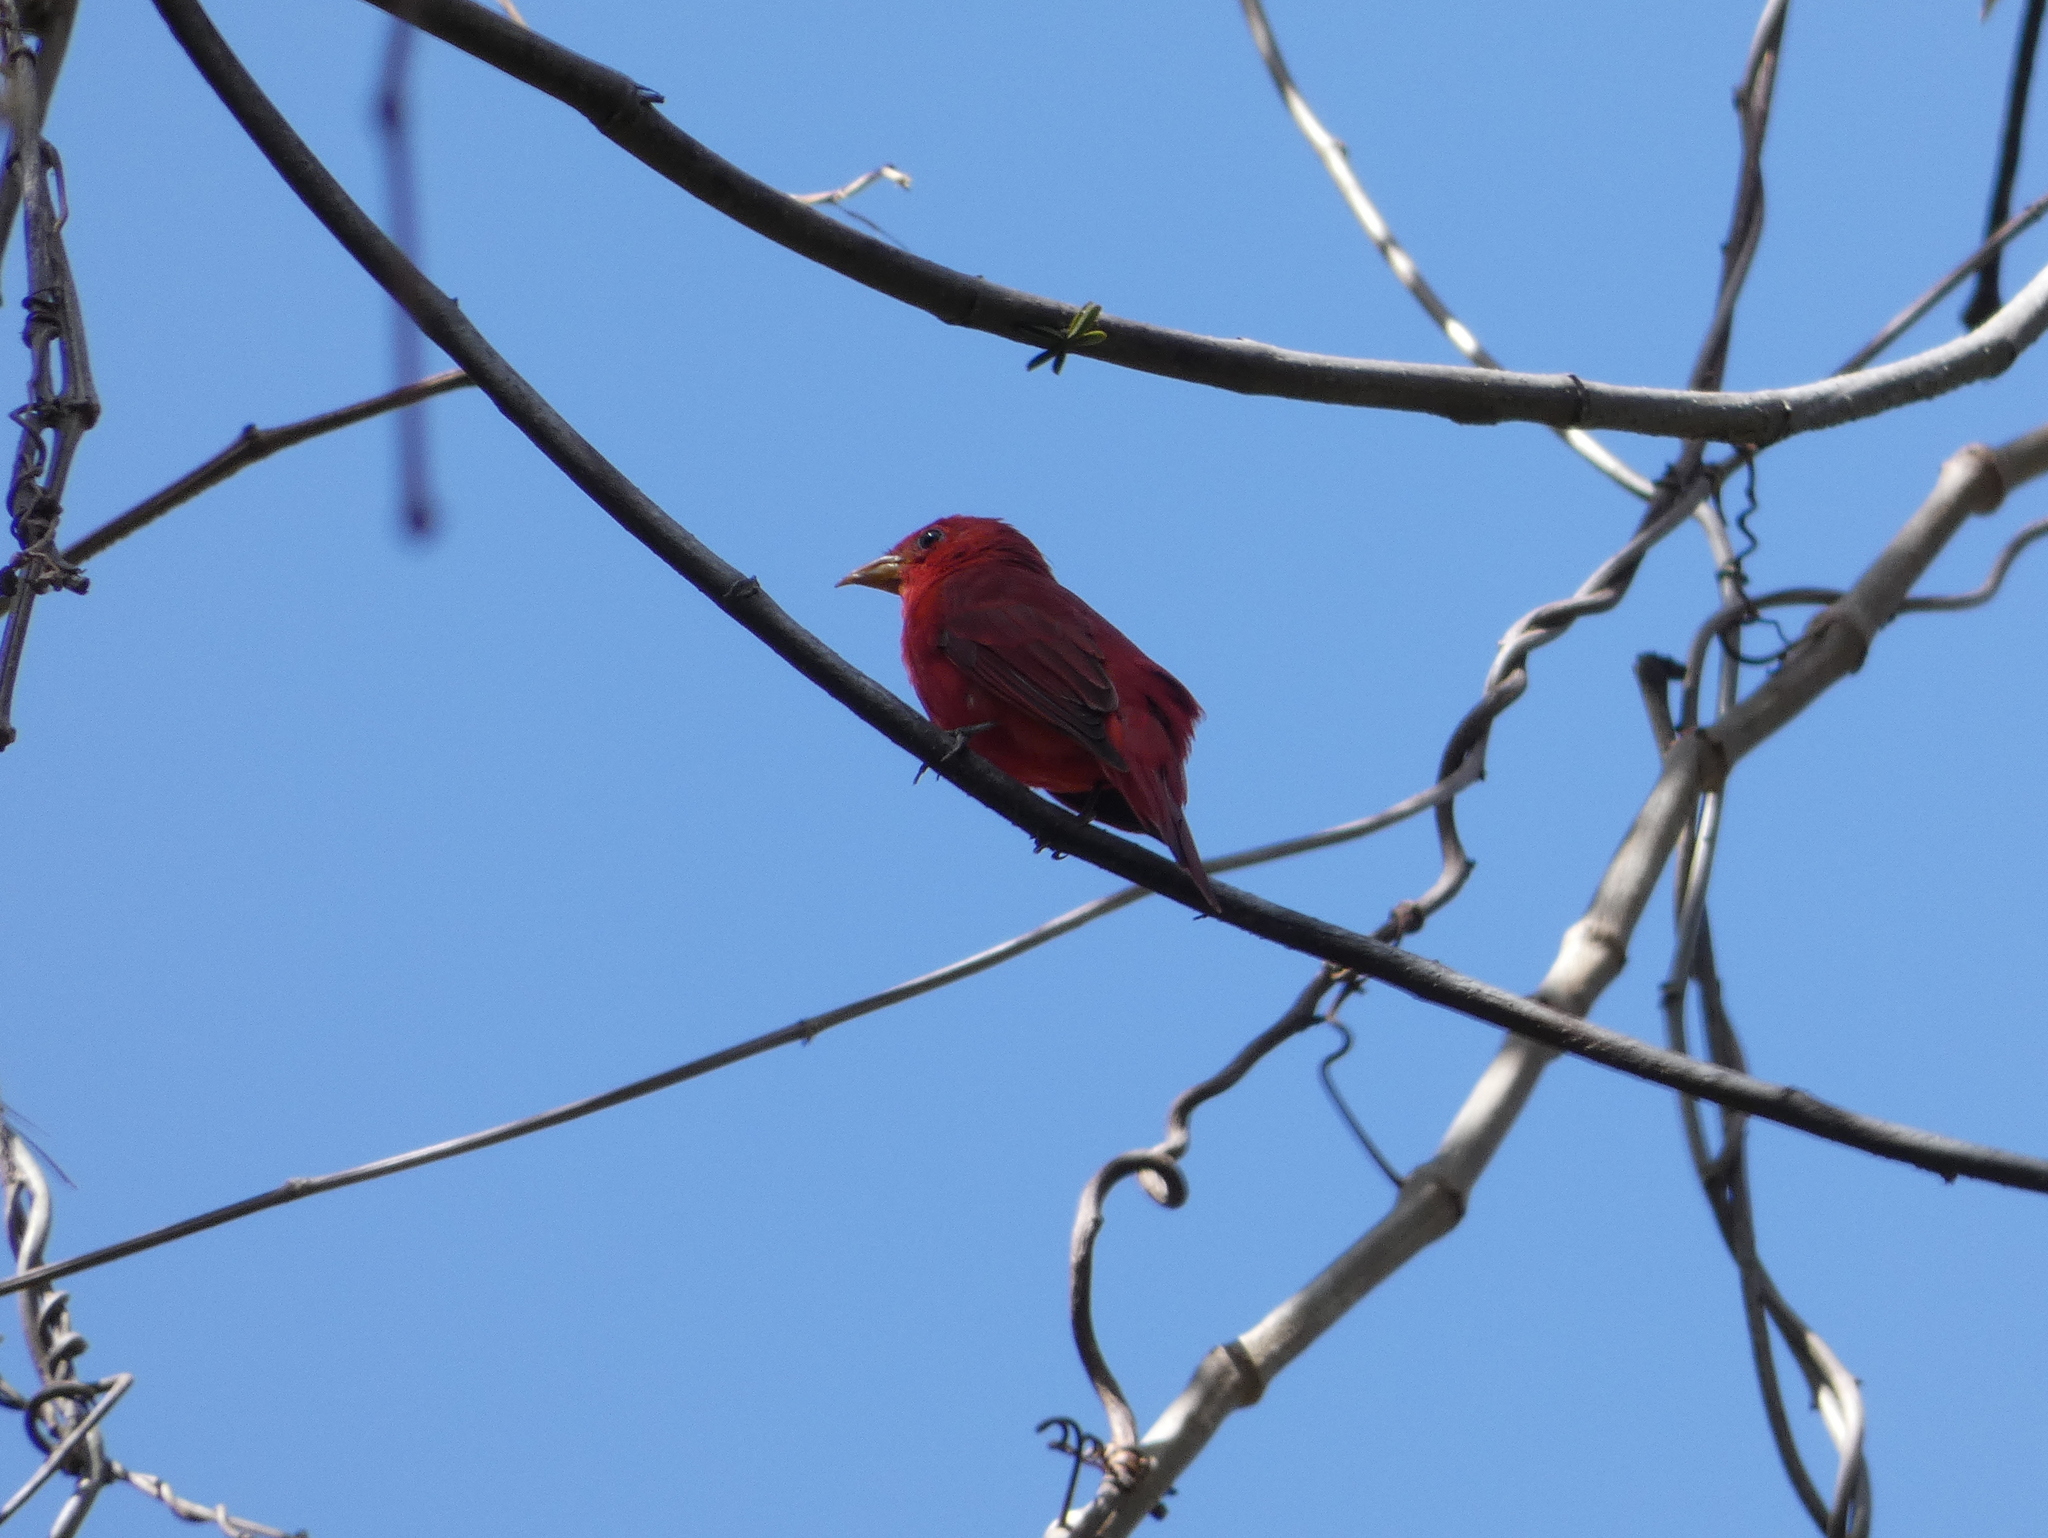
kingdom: Animalia
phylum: Chordata
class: Aves
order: Passeriformes
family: Cardinalidae
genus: Piranga
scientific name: Piranga flava
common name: Red tanager
